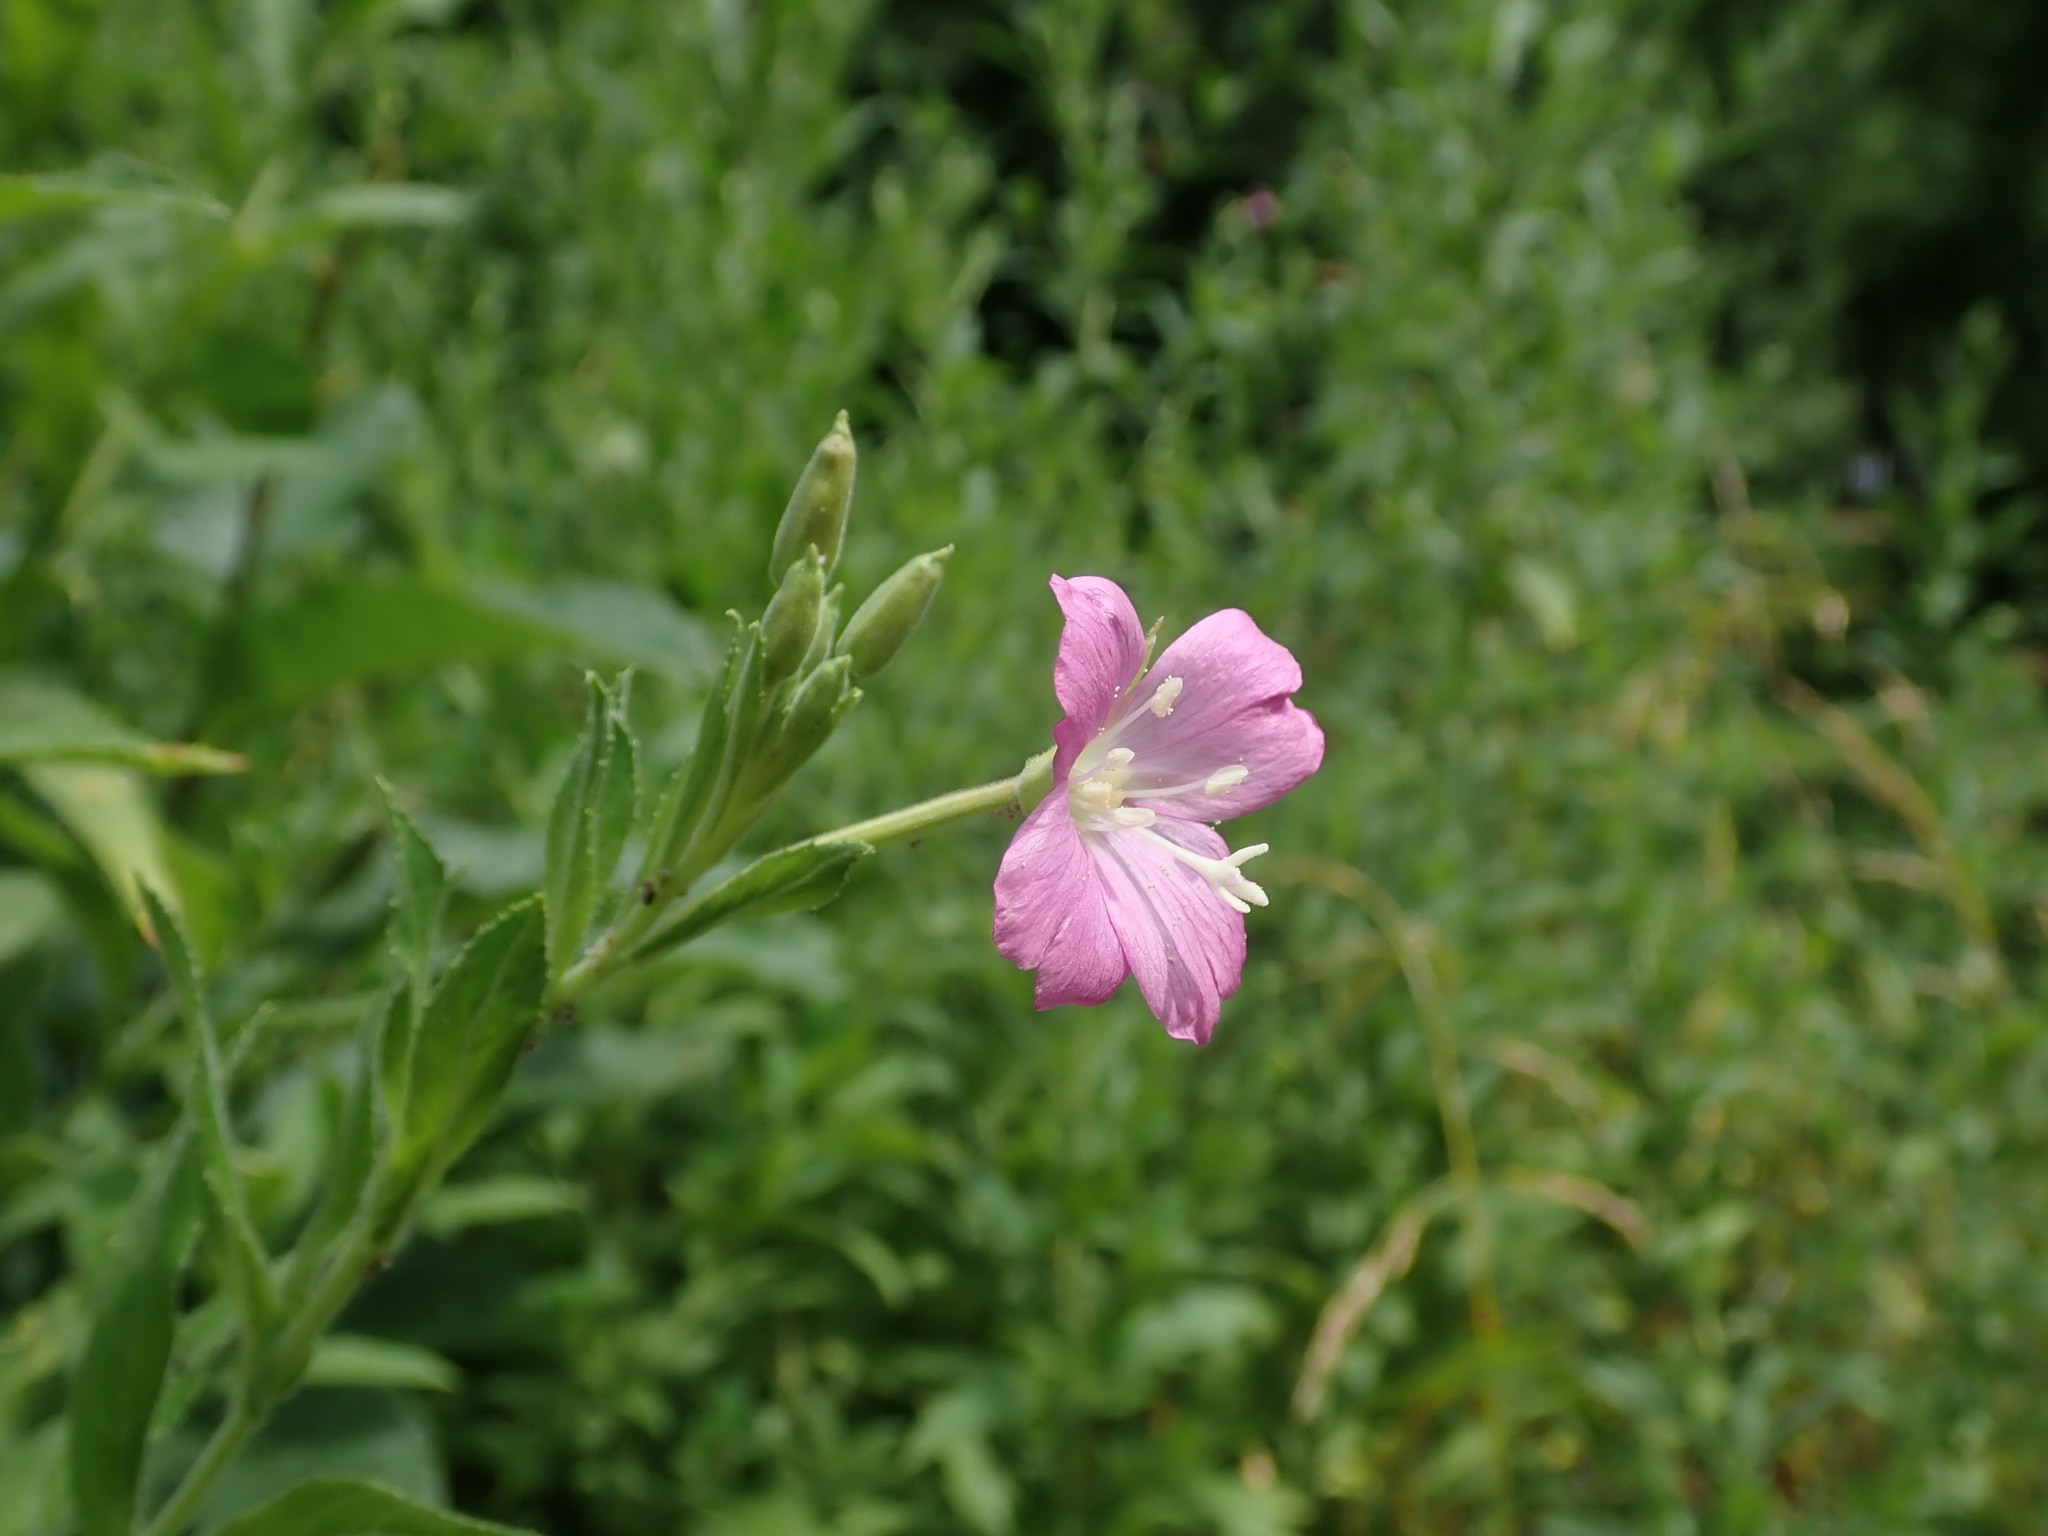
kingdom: Plantae
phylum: Tracheophyta
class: Magnoliopsida
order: Myrtales
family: Onagraceae
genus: Epilobium
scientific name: Epilobium hirsutum
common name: Great willowherb
